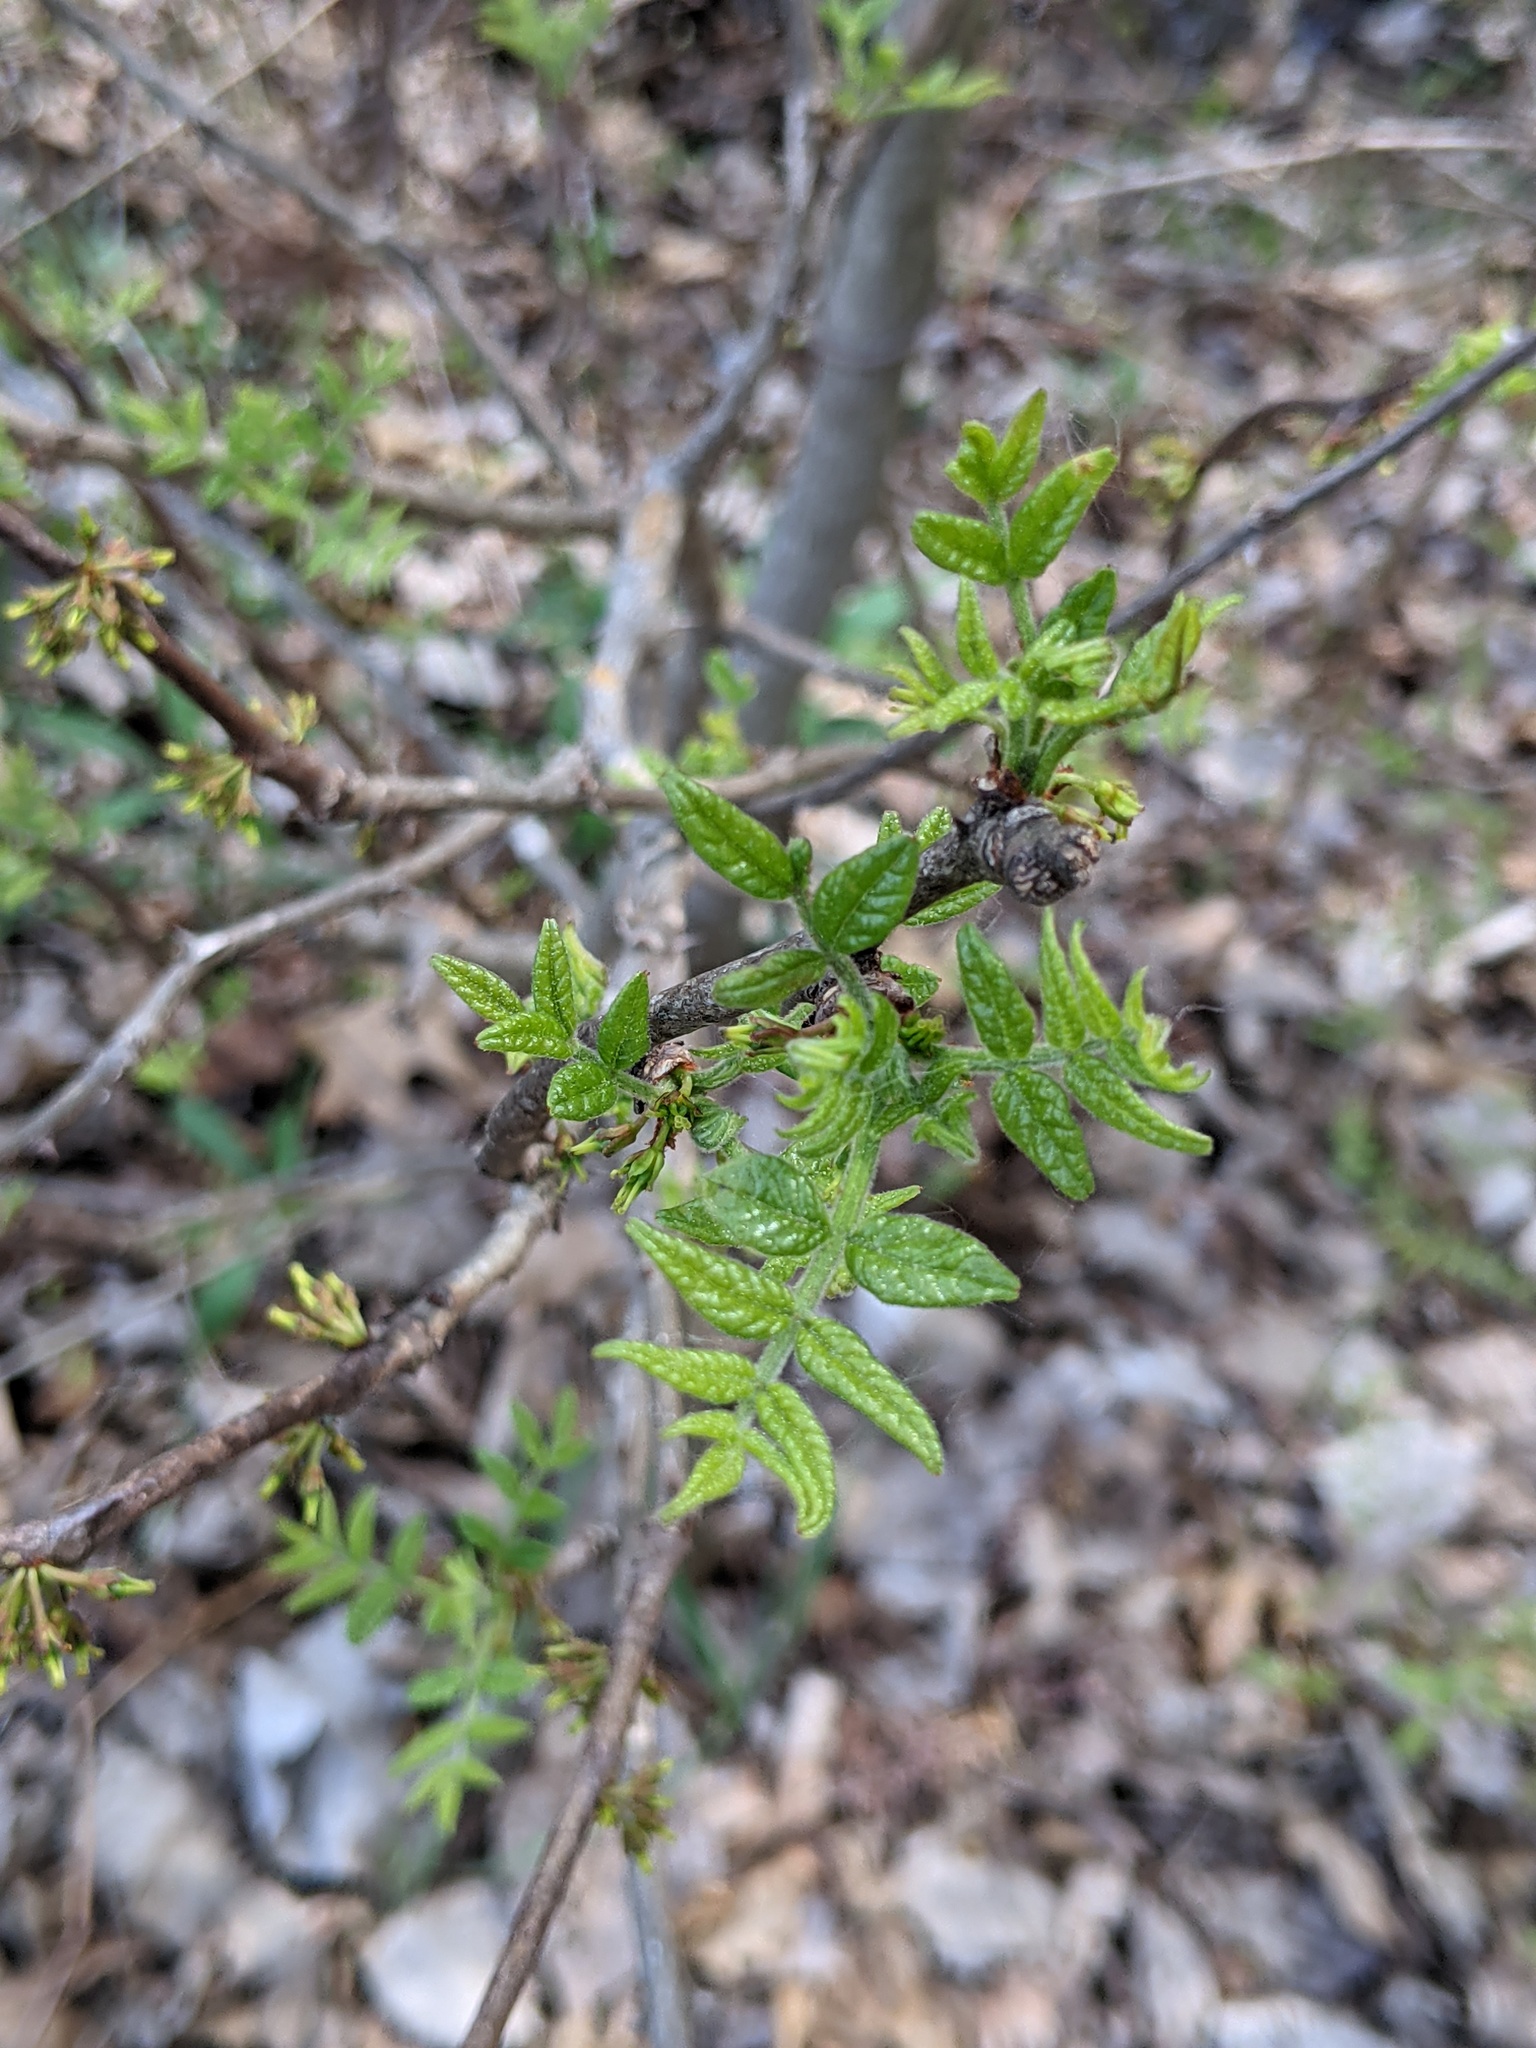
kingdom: Plantae
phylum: Tracheophyta
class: Magnoliopsida
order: Sapindales
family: Rutaceae
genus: Zanthoxylum
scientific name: Zanthoxylum americanum
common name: Northern prickly-ash
